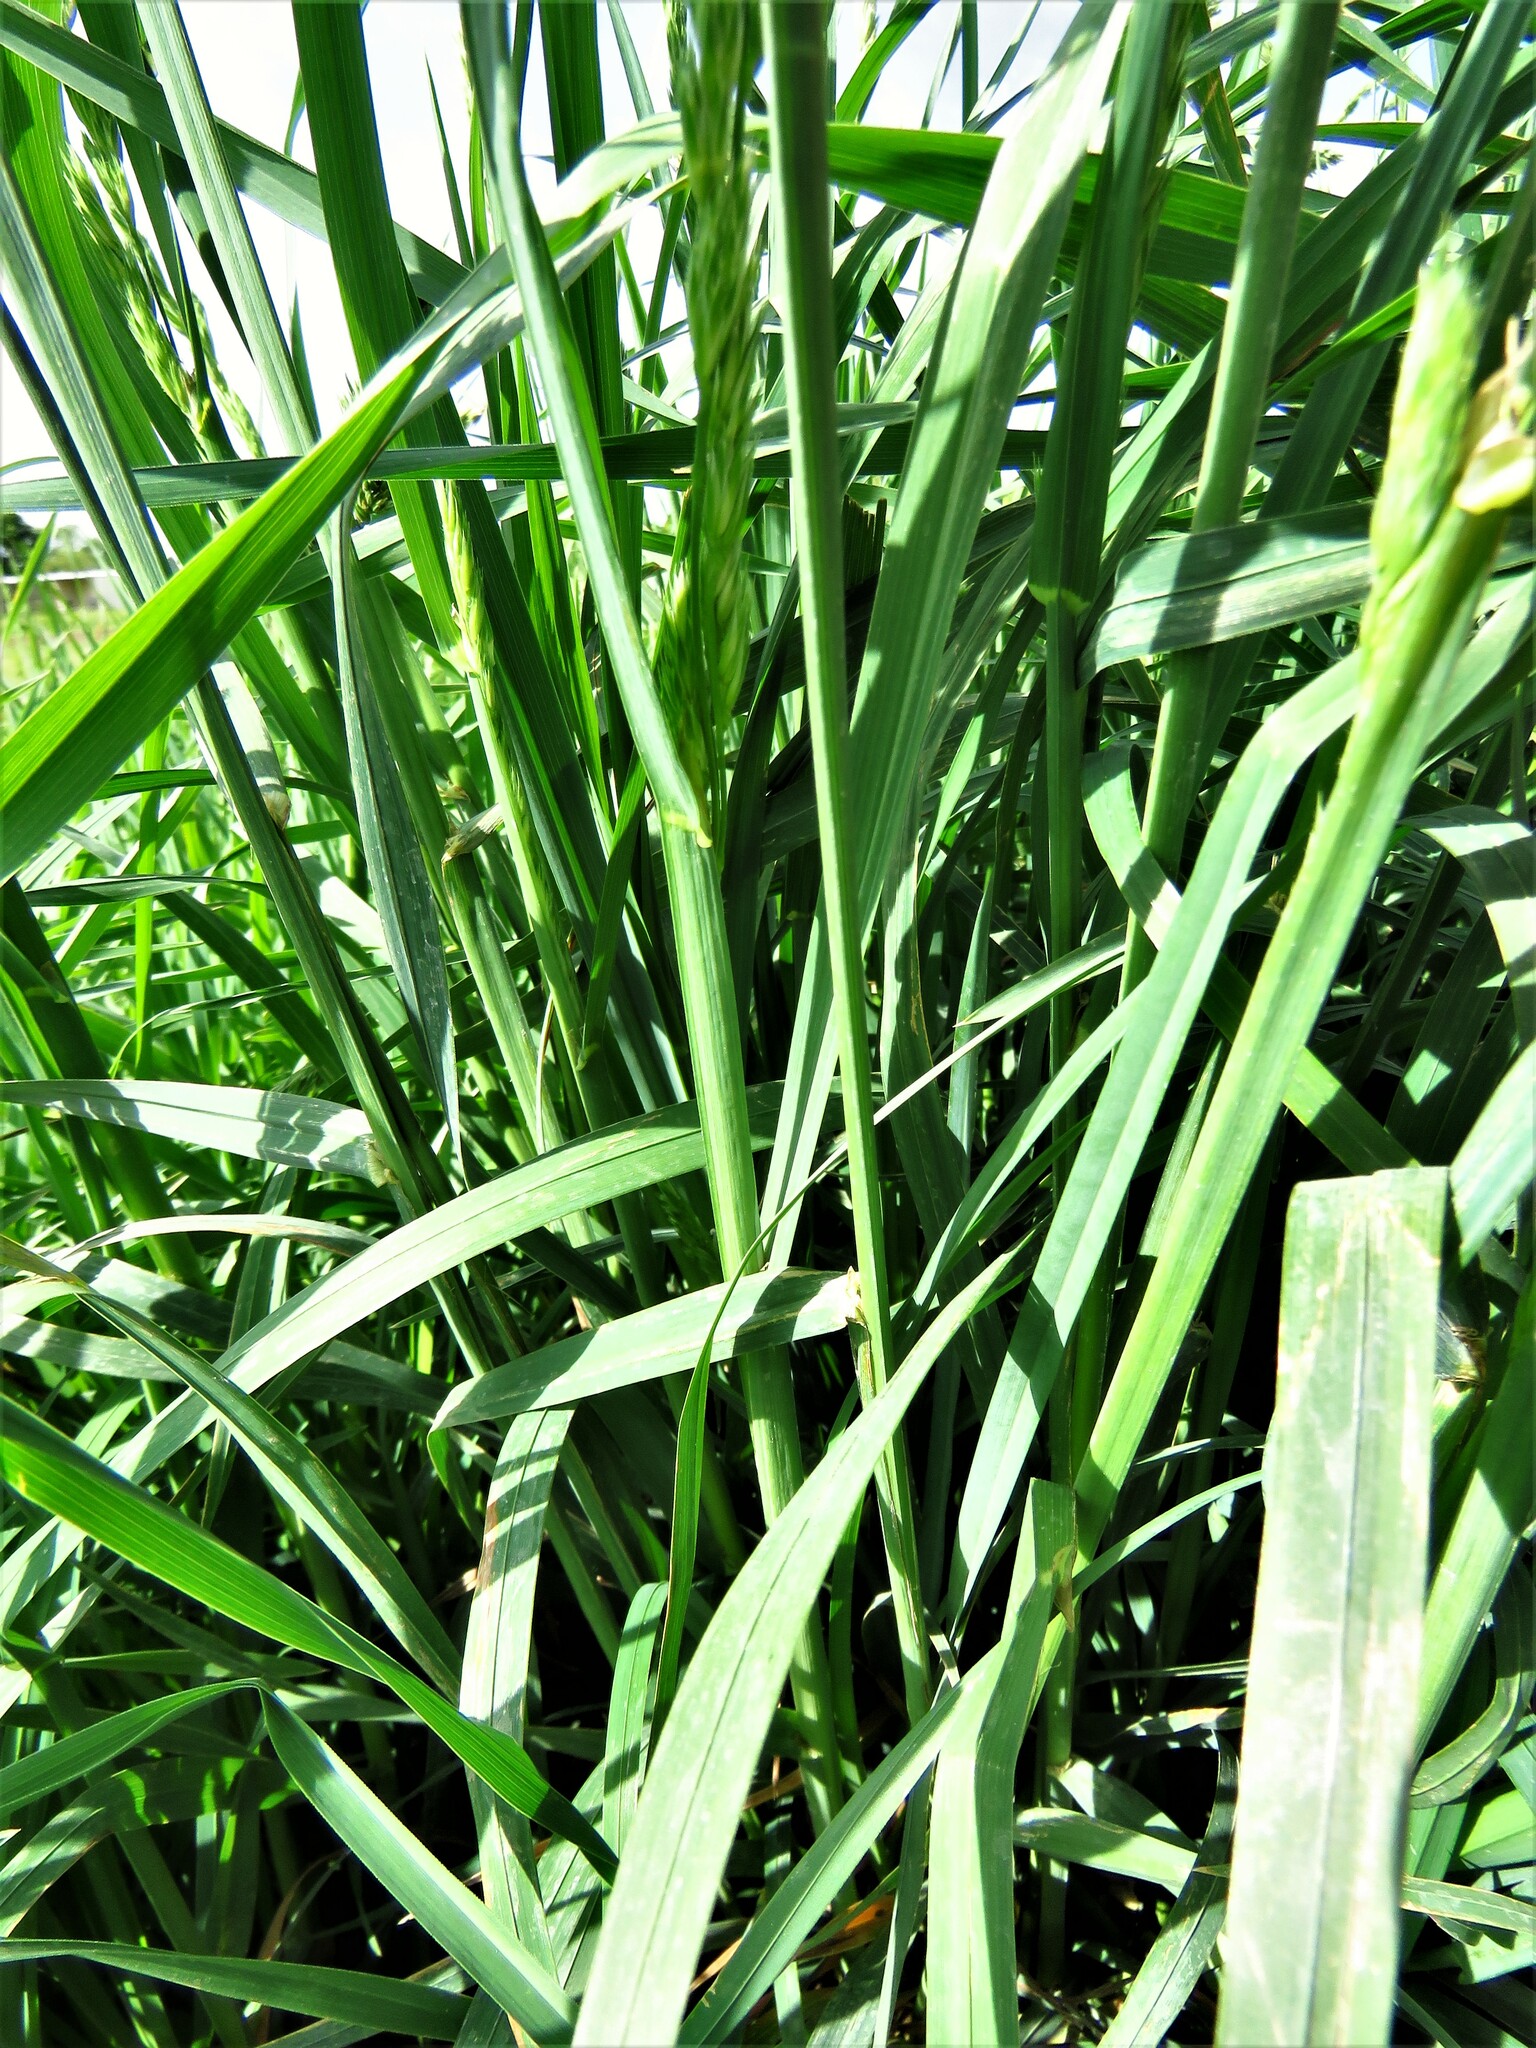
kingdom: Plantae
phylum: Tracheophyta
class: Liliopsida
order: Poales
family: Poaceae
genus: Dactylis
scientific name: Dactylis glomerata
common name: Orchardgrass
